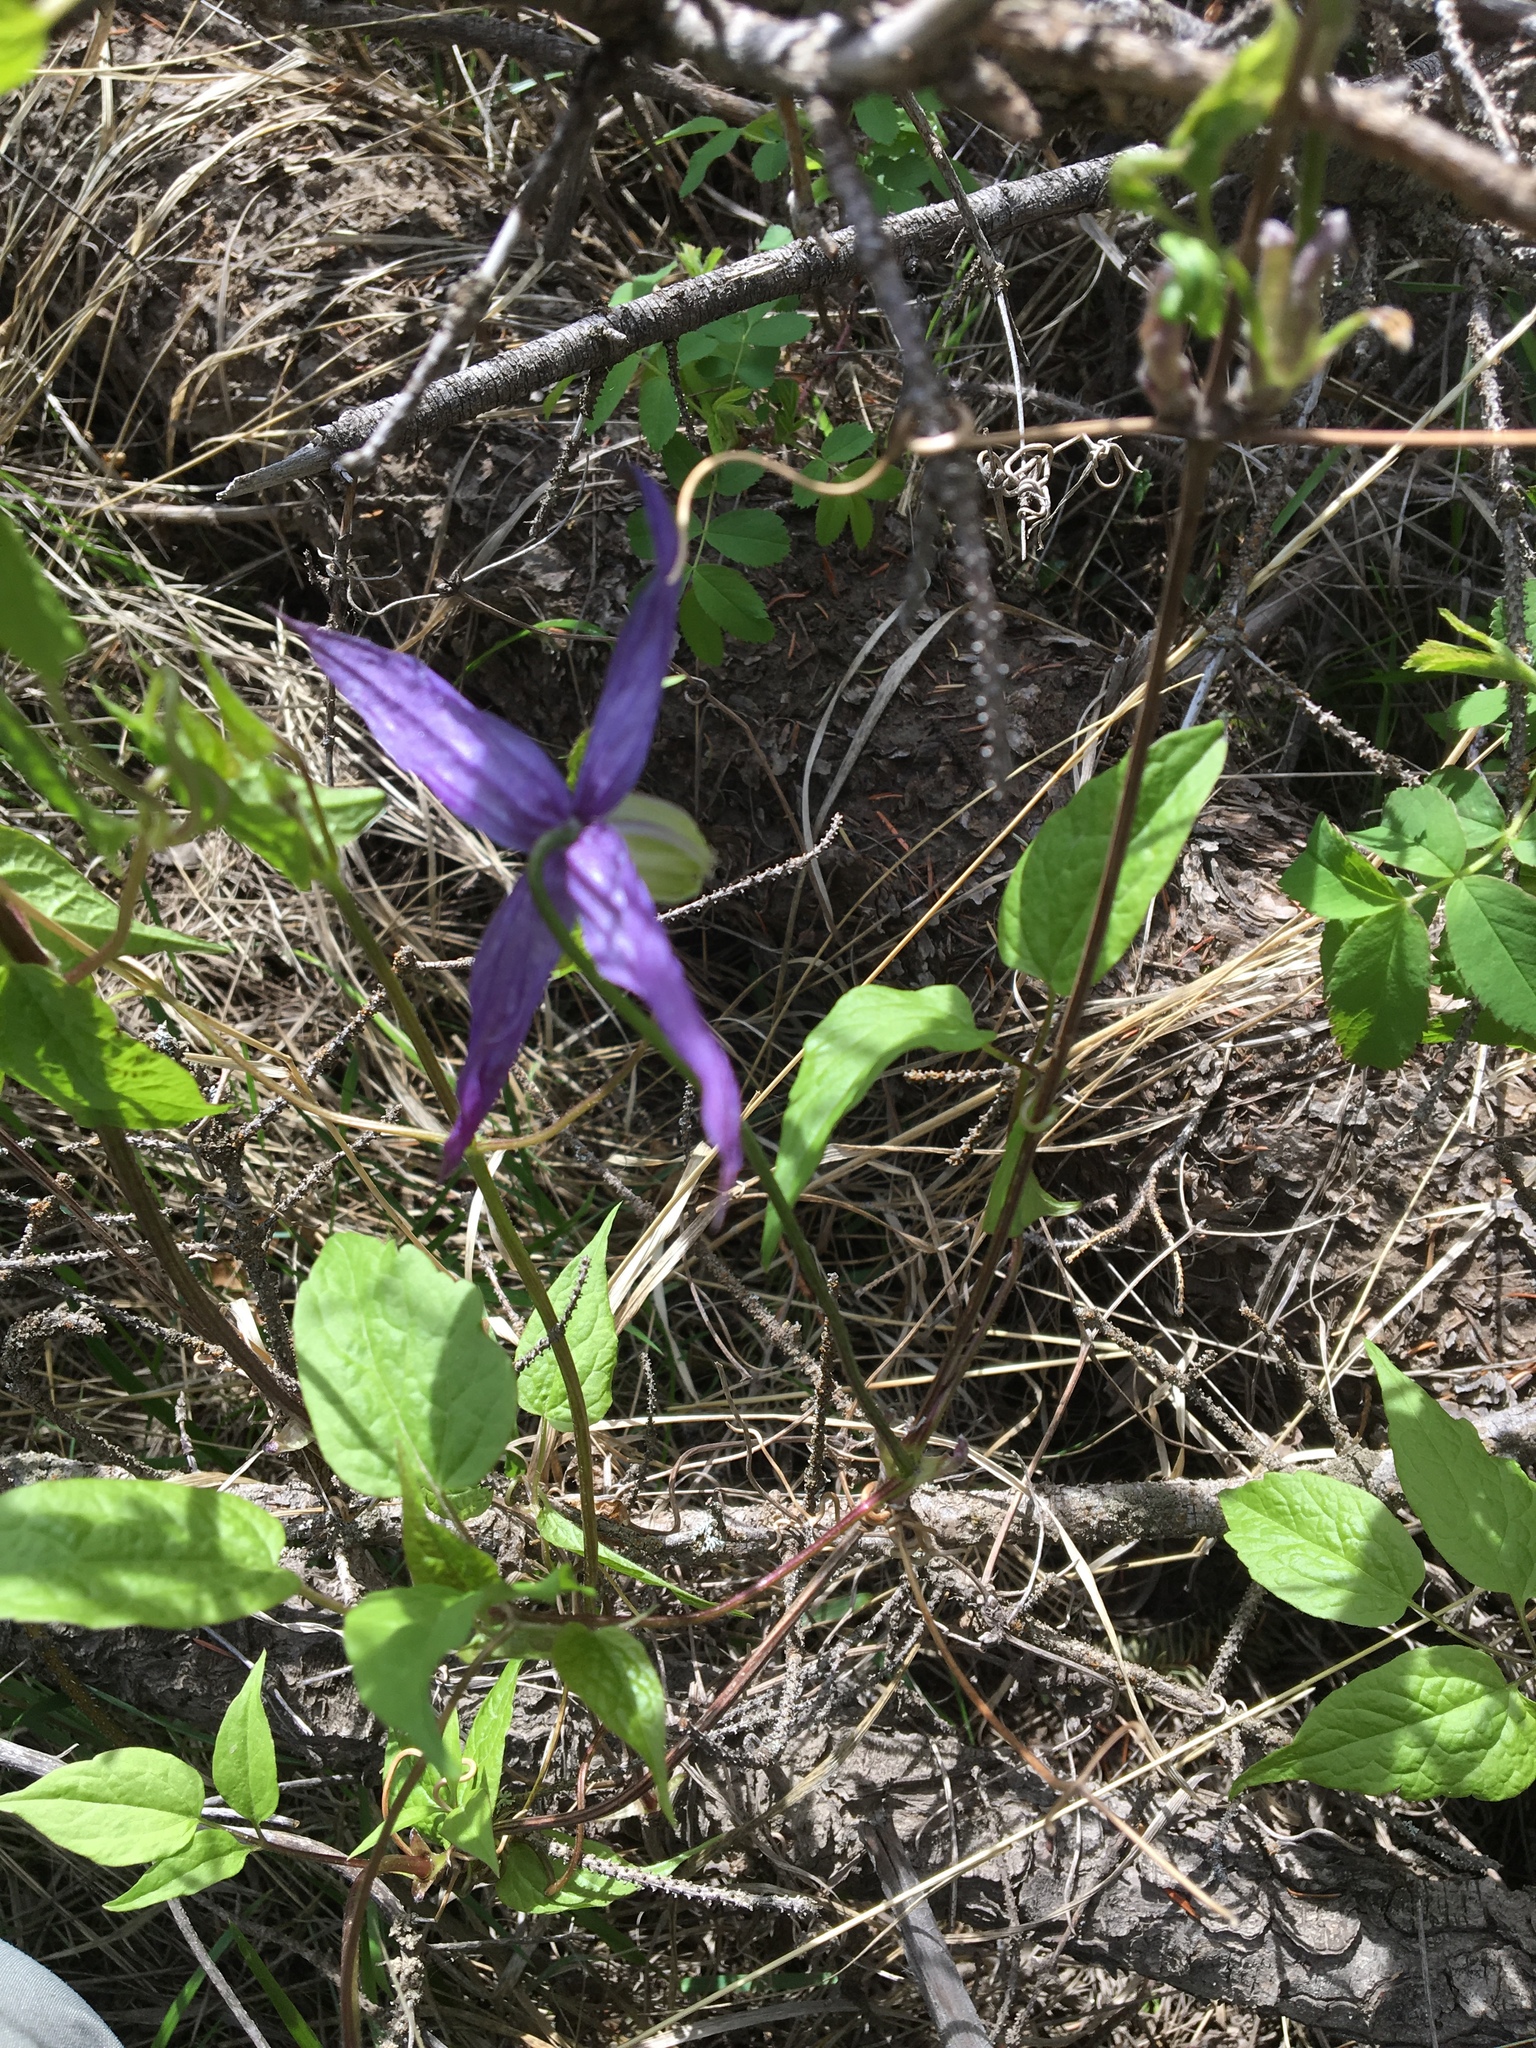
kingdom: Plantae
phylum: Tracheophyta
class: Magnoliopsida
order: Ranunculales
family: Ranunculaceae
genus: Clematis
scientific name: Clematis occidentalis
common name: Purple clematis
